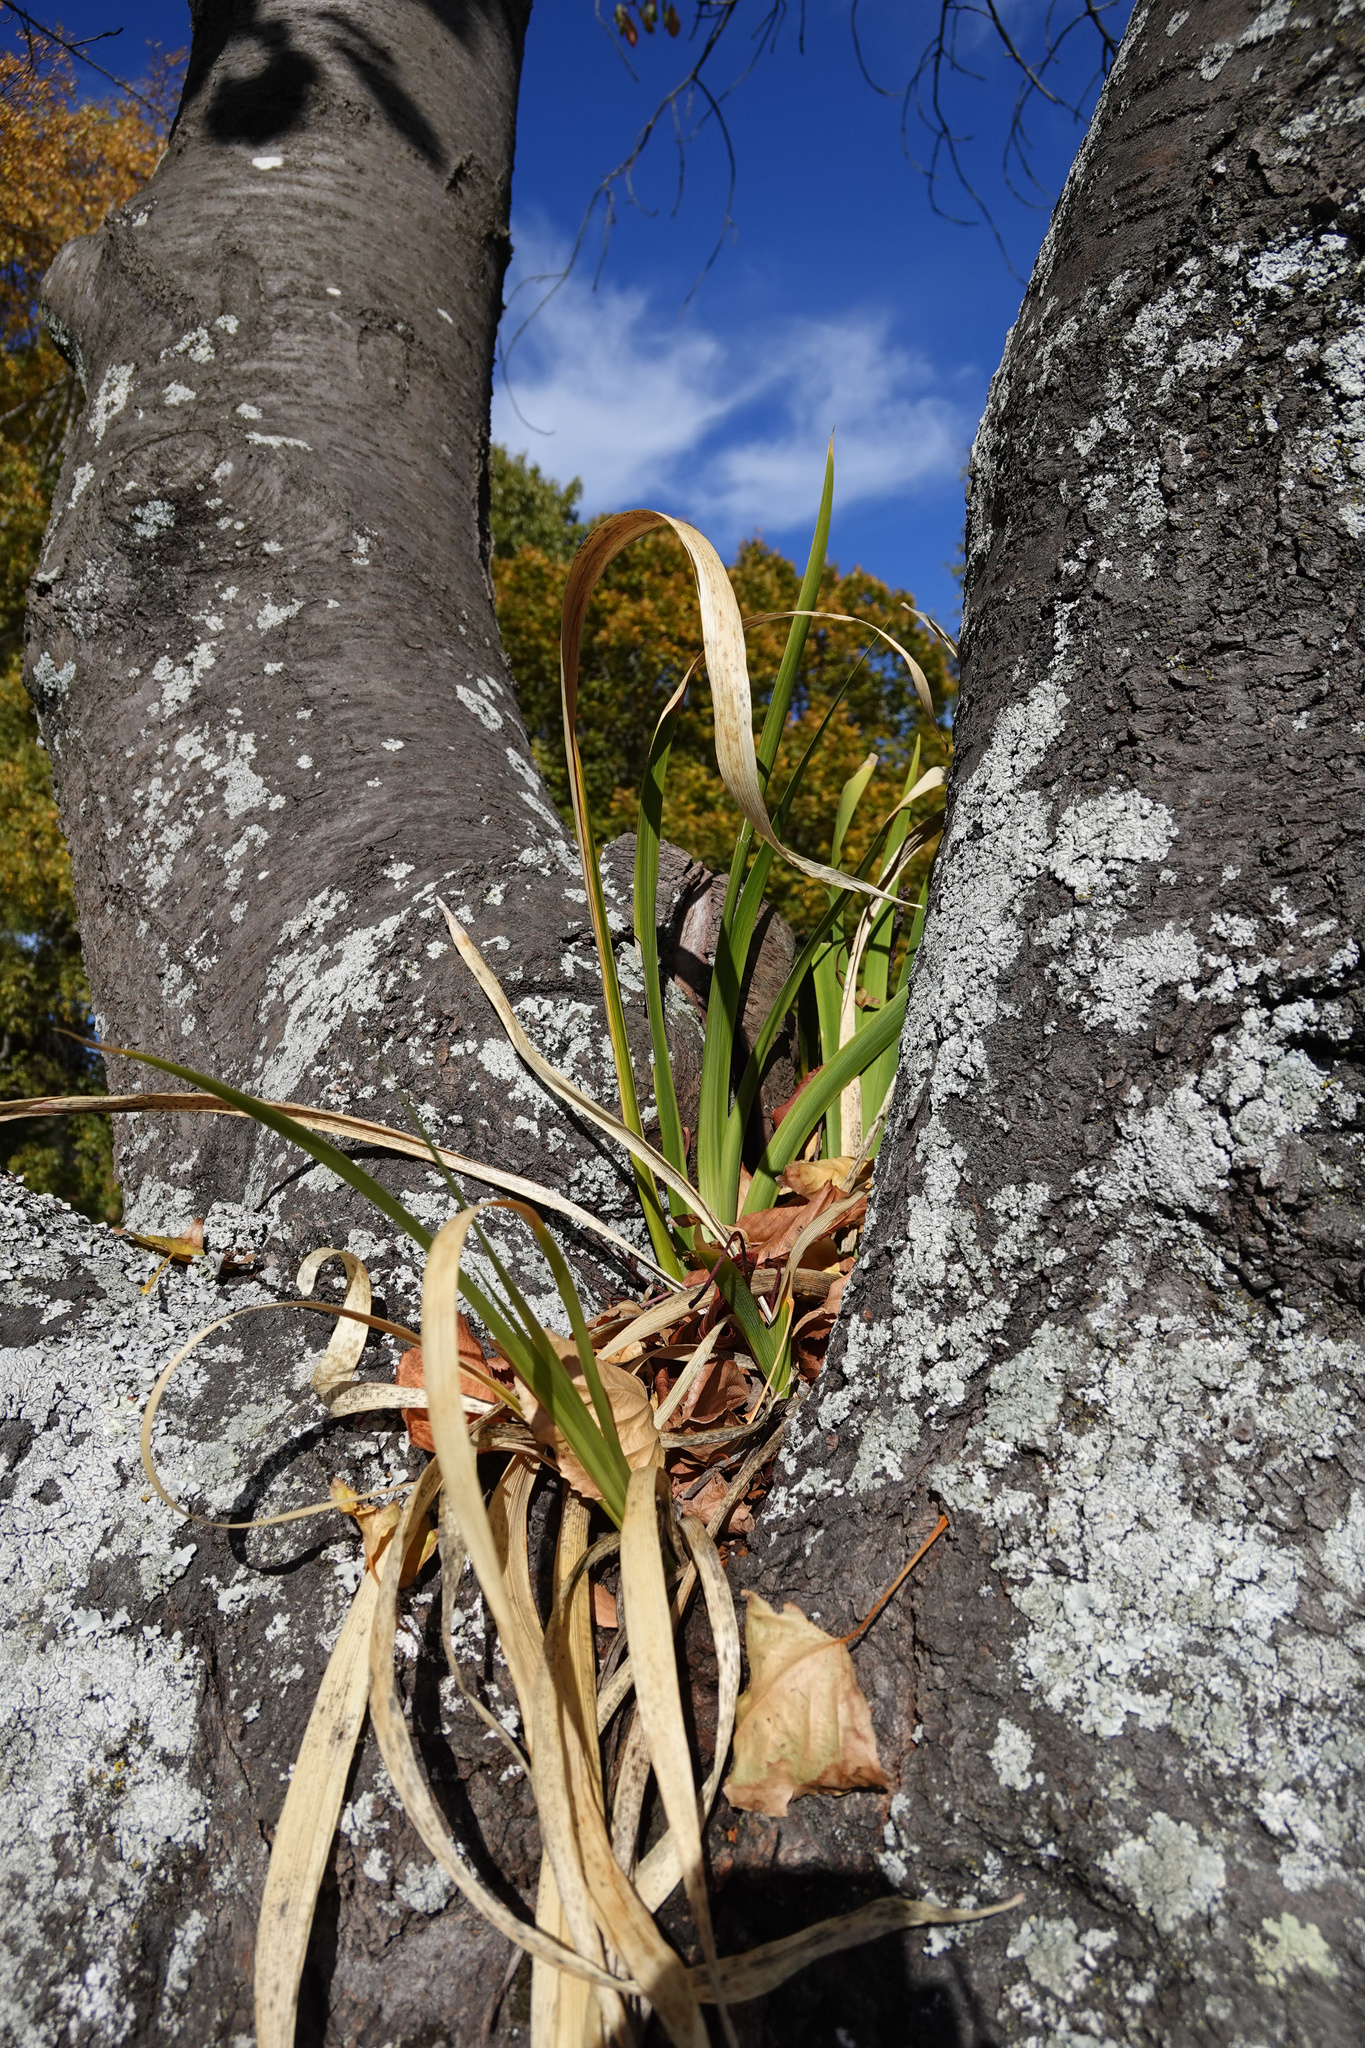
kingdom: Plantae
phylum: Tracheophyta
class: Liliopsida
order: Asparagales
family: Iridaceae
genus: Iris
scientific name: Iris foetidissima
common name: Stinking iris
